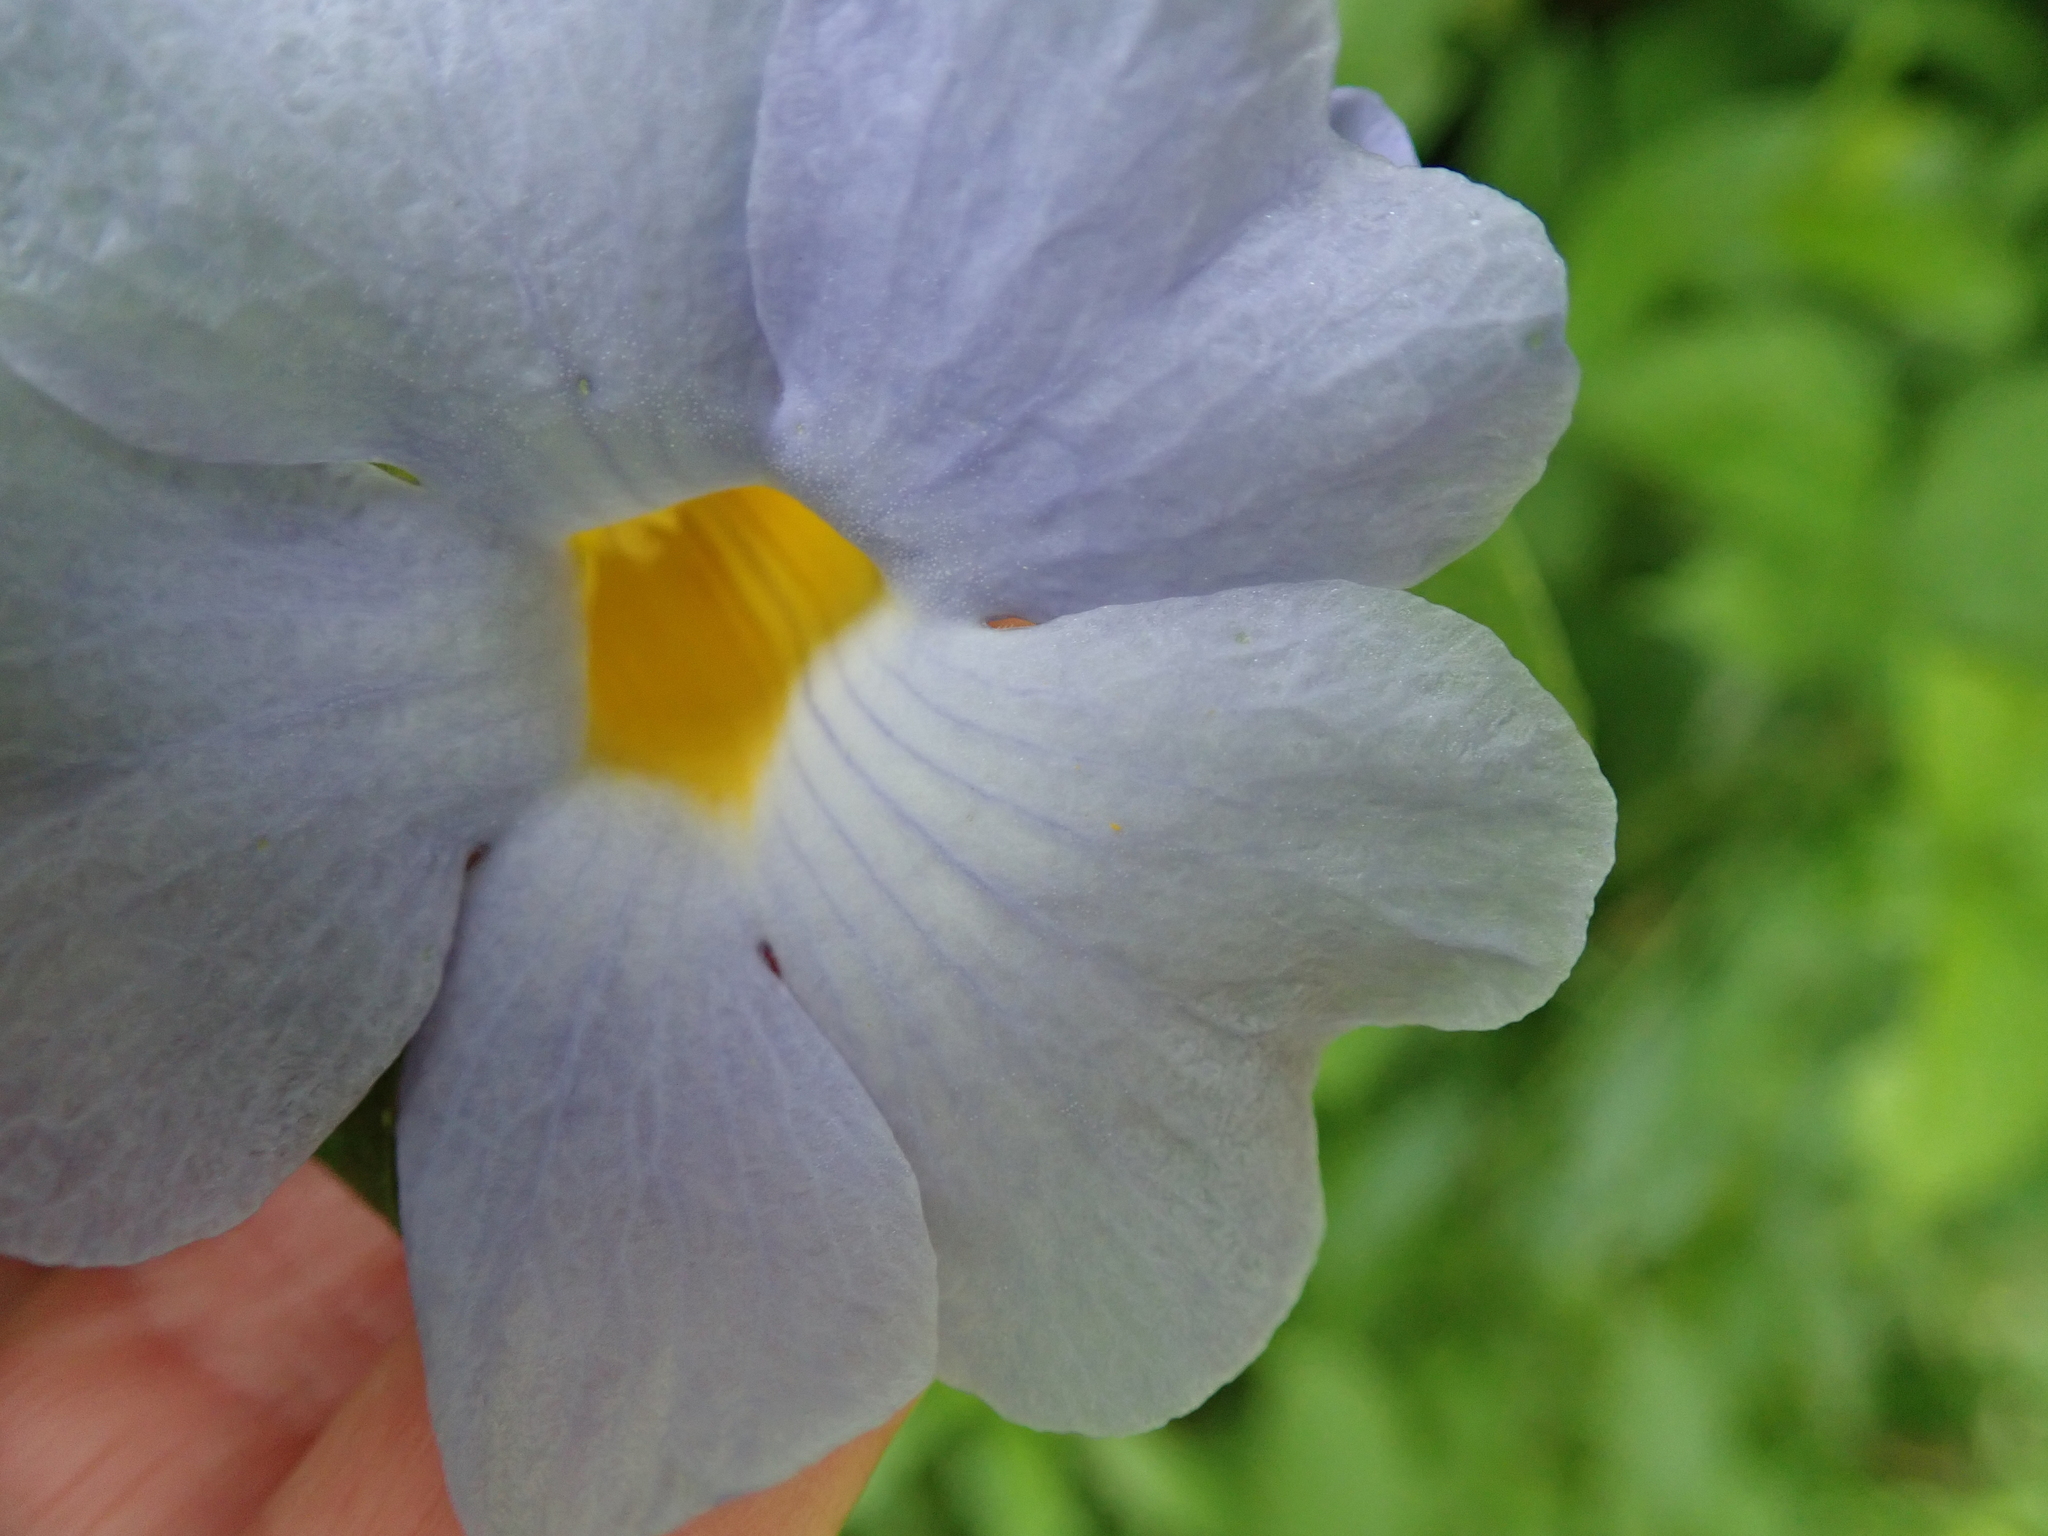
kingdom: Plantae
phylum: Tracheophyta
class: Magnoliopsida
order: Lamiales
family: Acanthaceae
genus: Thunbergia
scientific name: Thunbergia natalensis
